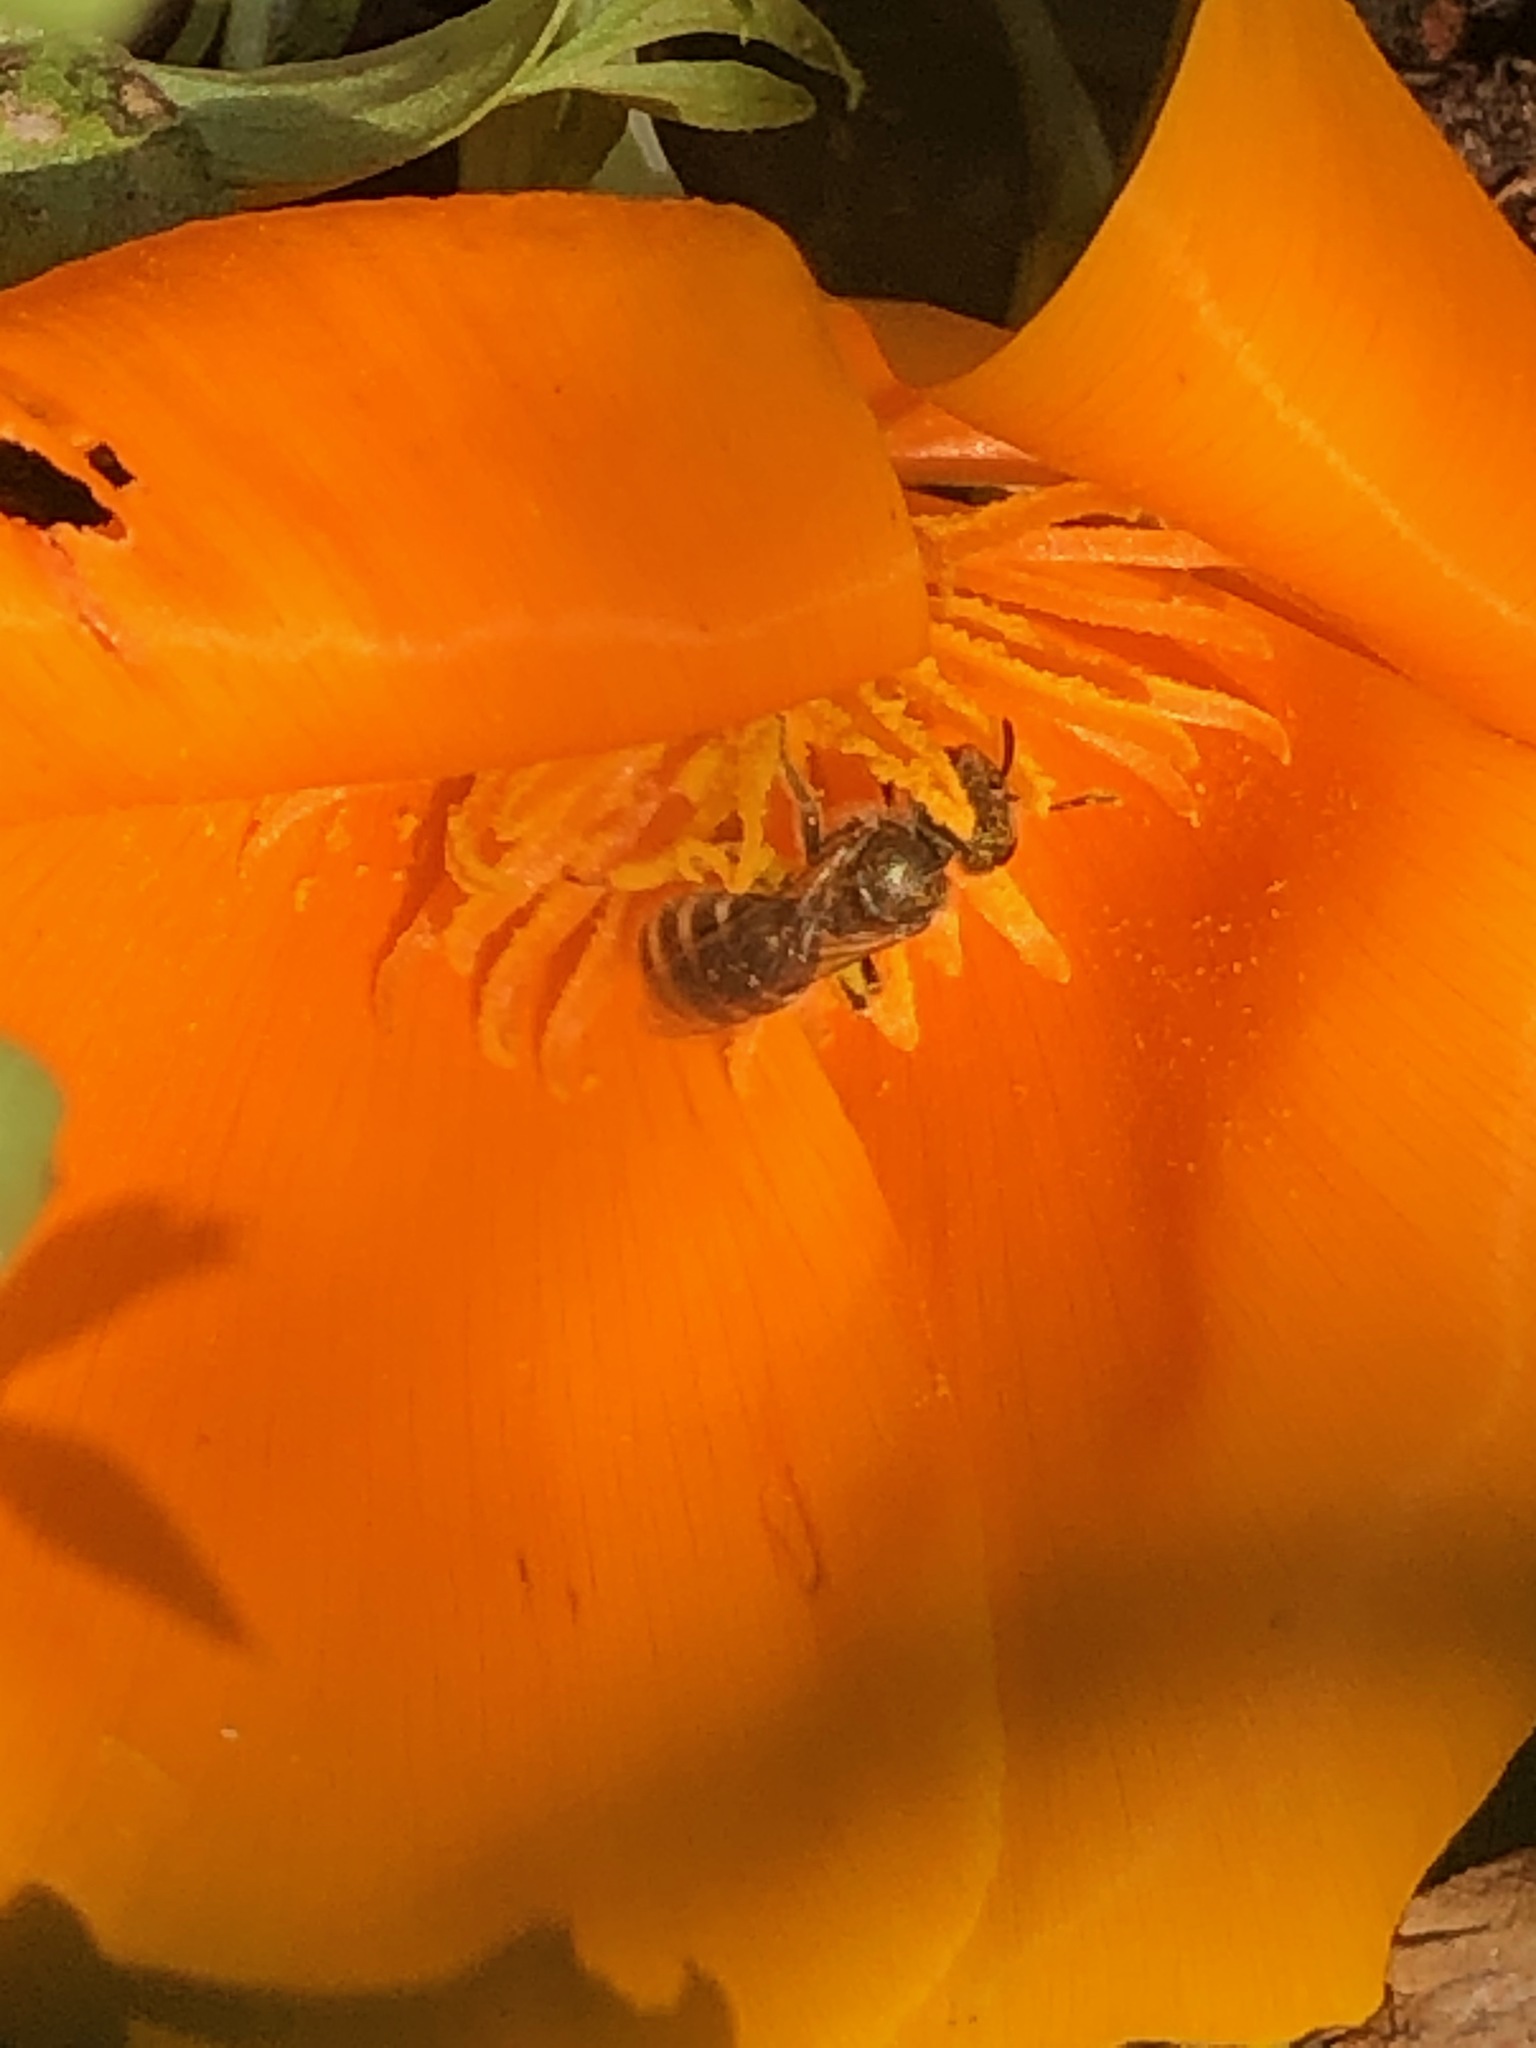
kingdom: Animalia
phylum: Arthropoda
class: Insecta
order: Hymenoptera
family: Halictidae
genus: Halictus
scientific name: Halictus tripartitus
